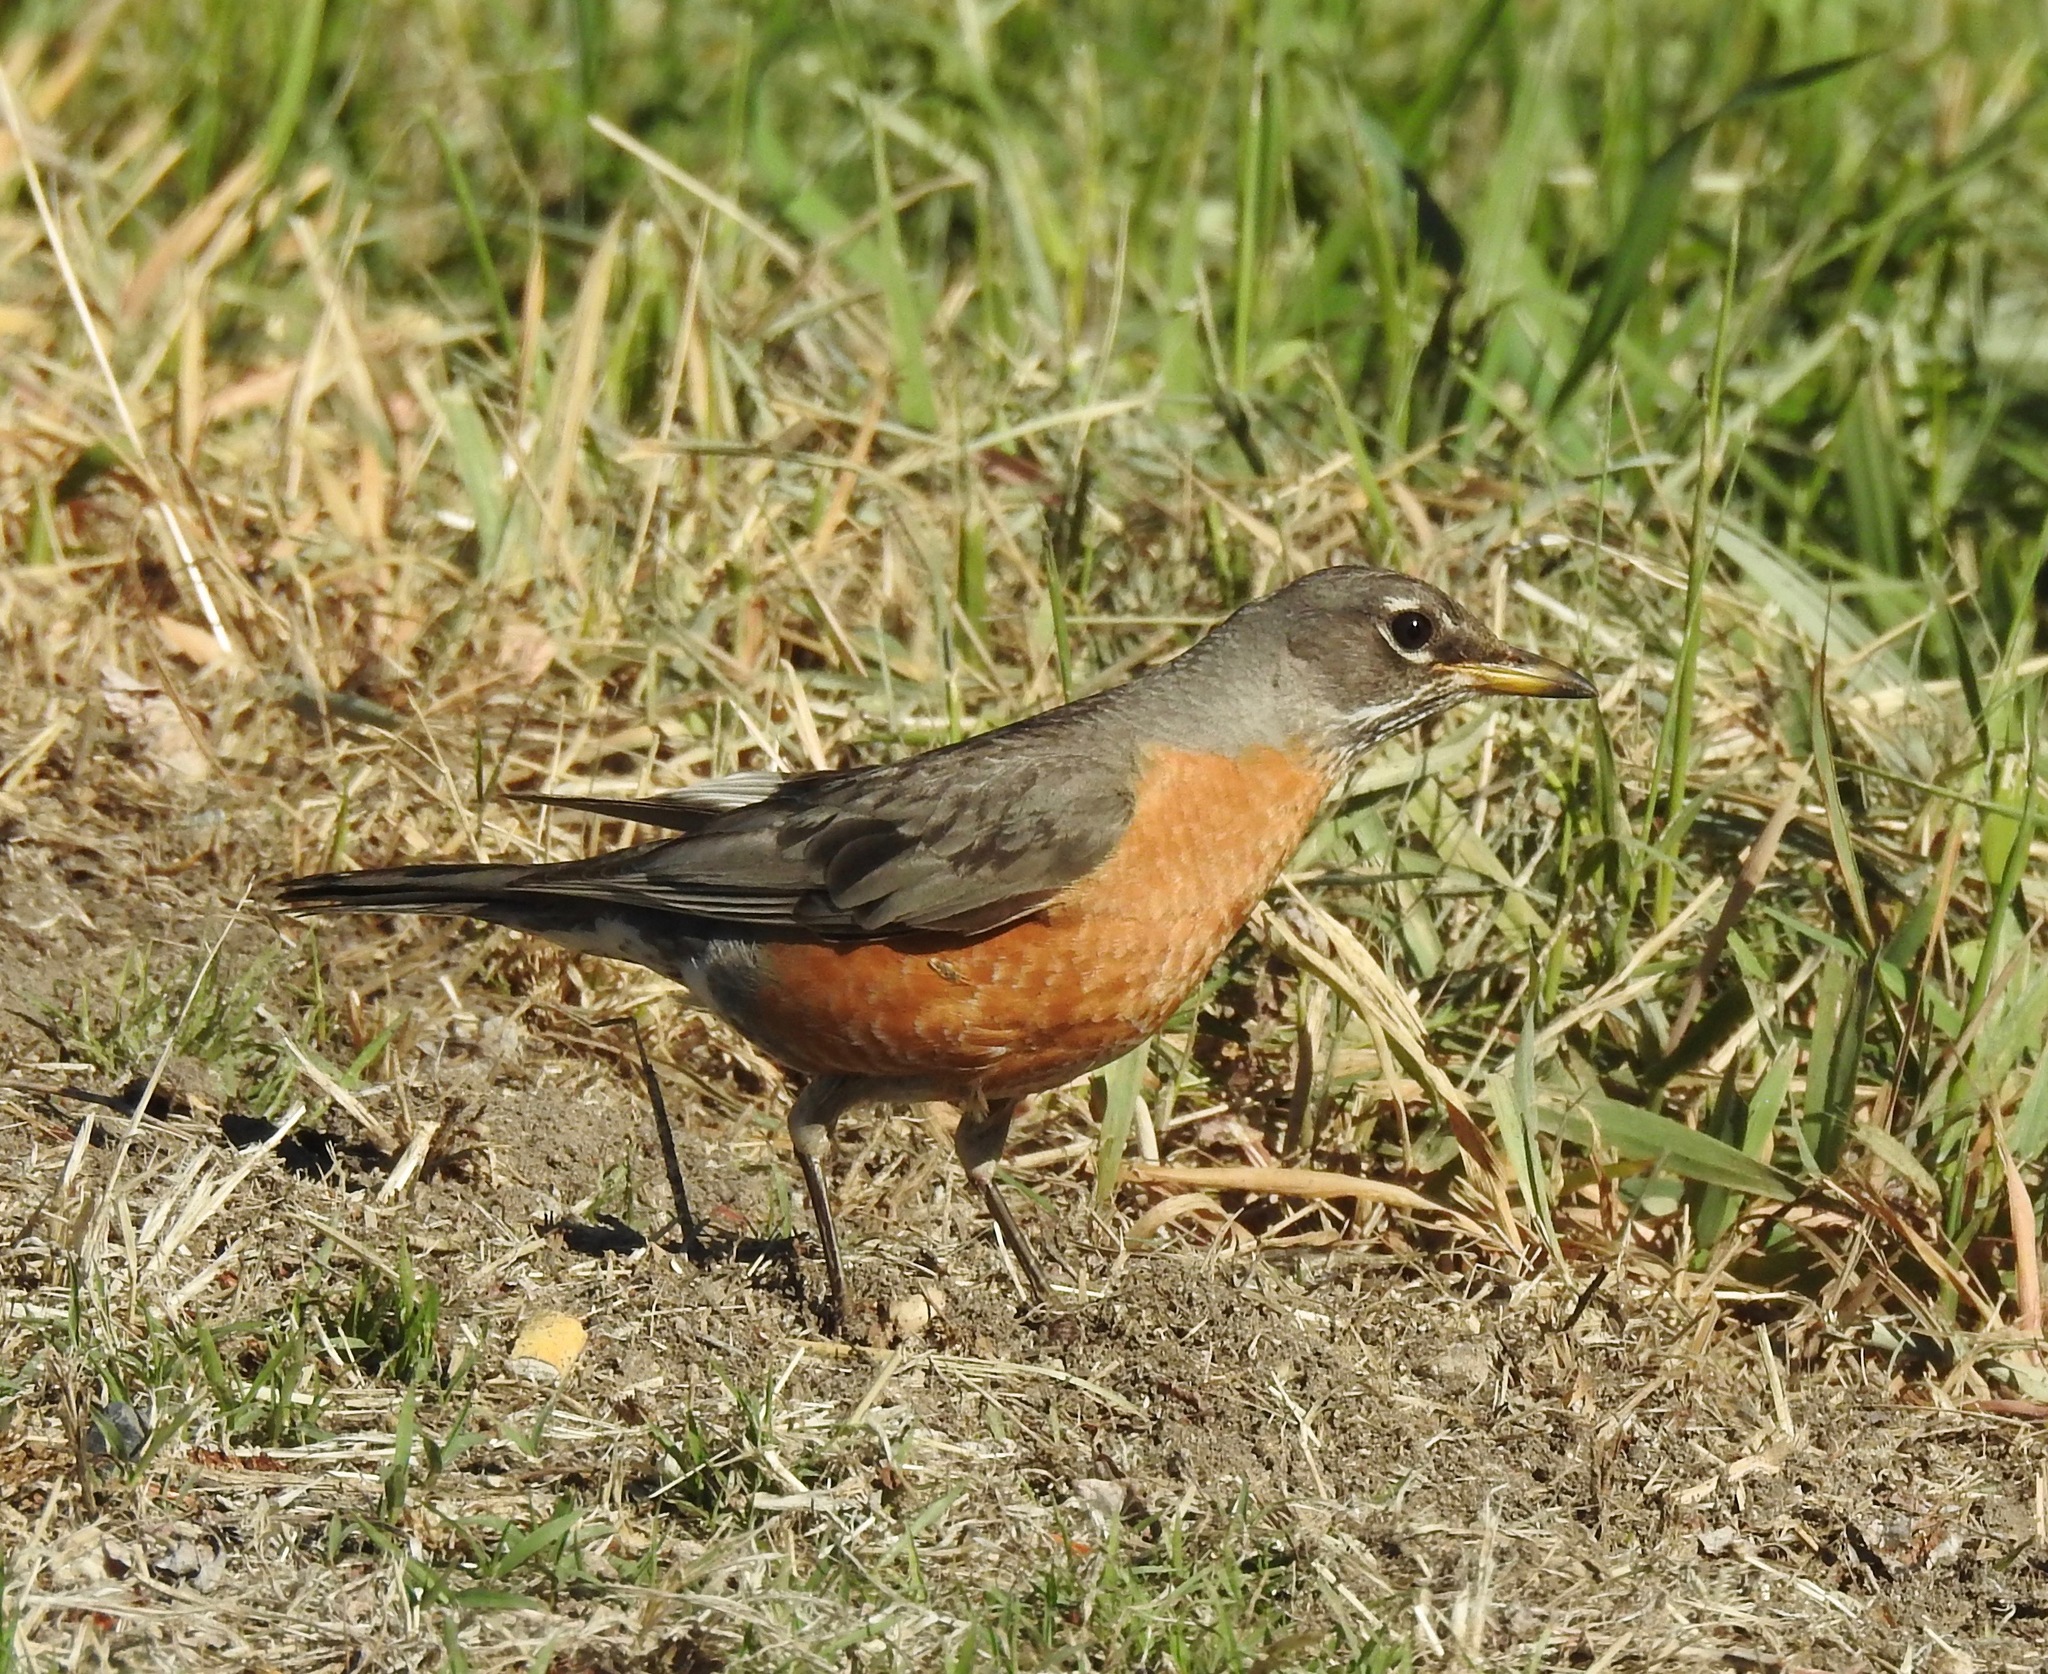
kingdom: Animalia
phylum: Chordata
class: Aves
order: Passeriformes
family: Turdidae
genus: Turdus
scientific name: Turdus migratorius
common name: American robin
